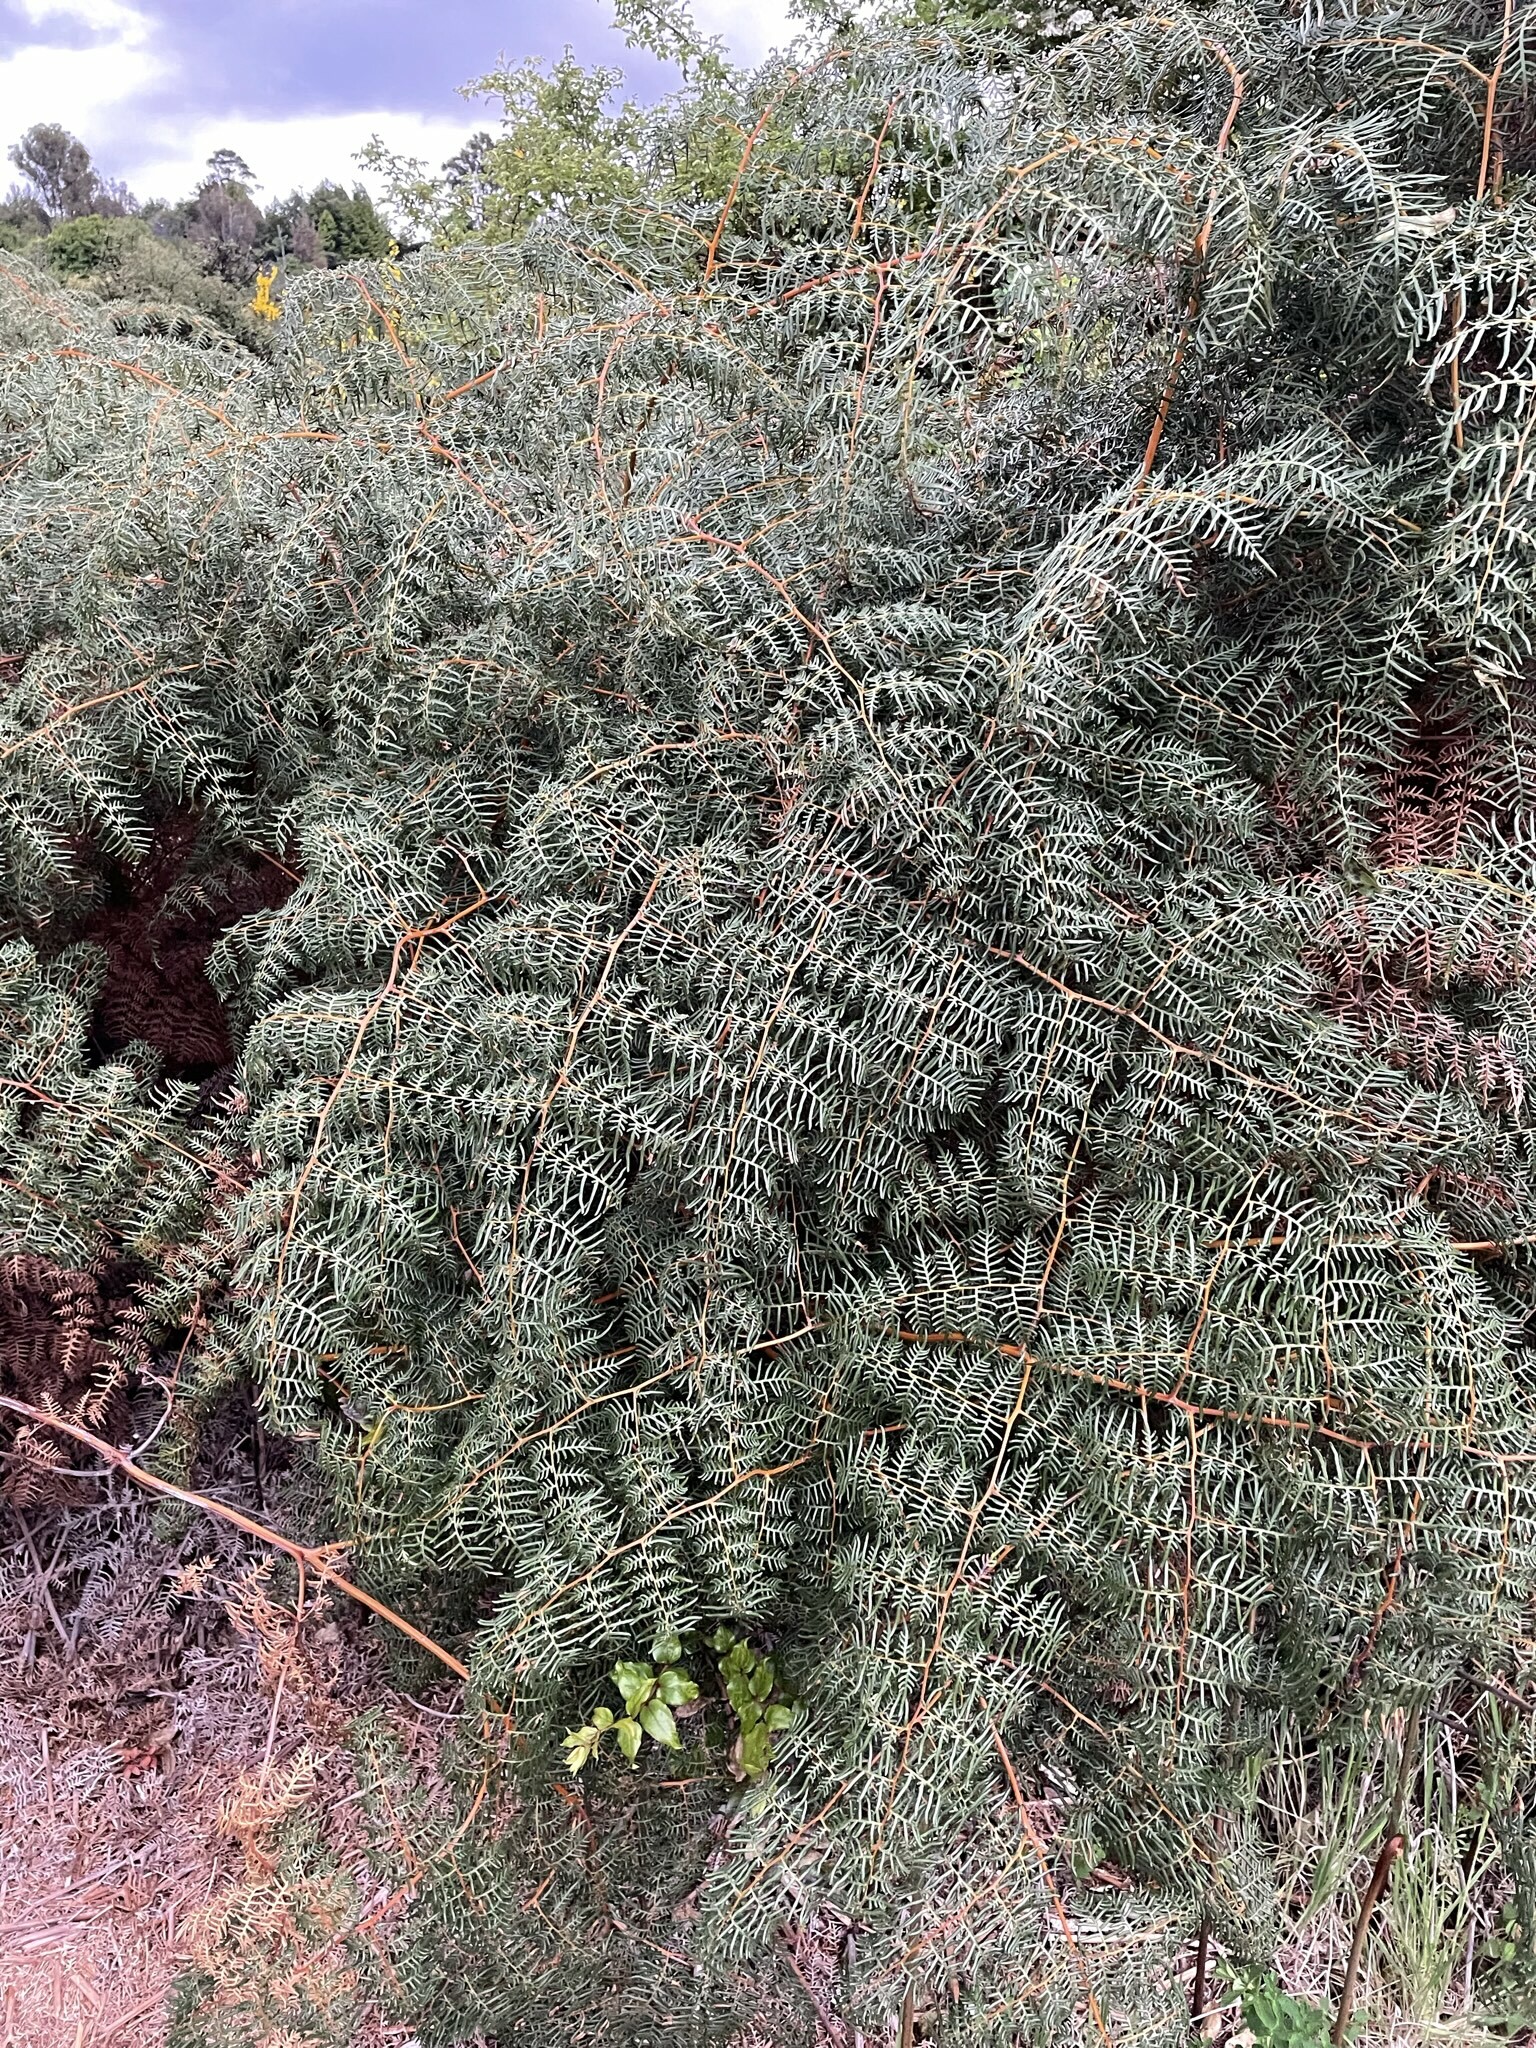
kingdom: Plantae
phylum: Tracheophyta
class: Polypodiopsida
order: Polypodiales
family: Dennstaedtiaceae
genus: Pteridium
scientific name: Pteridium esculentum
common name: Bracken fern
